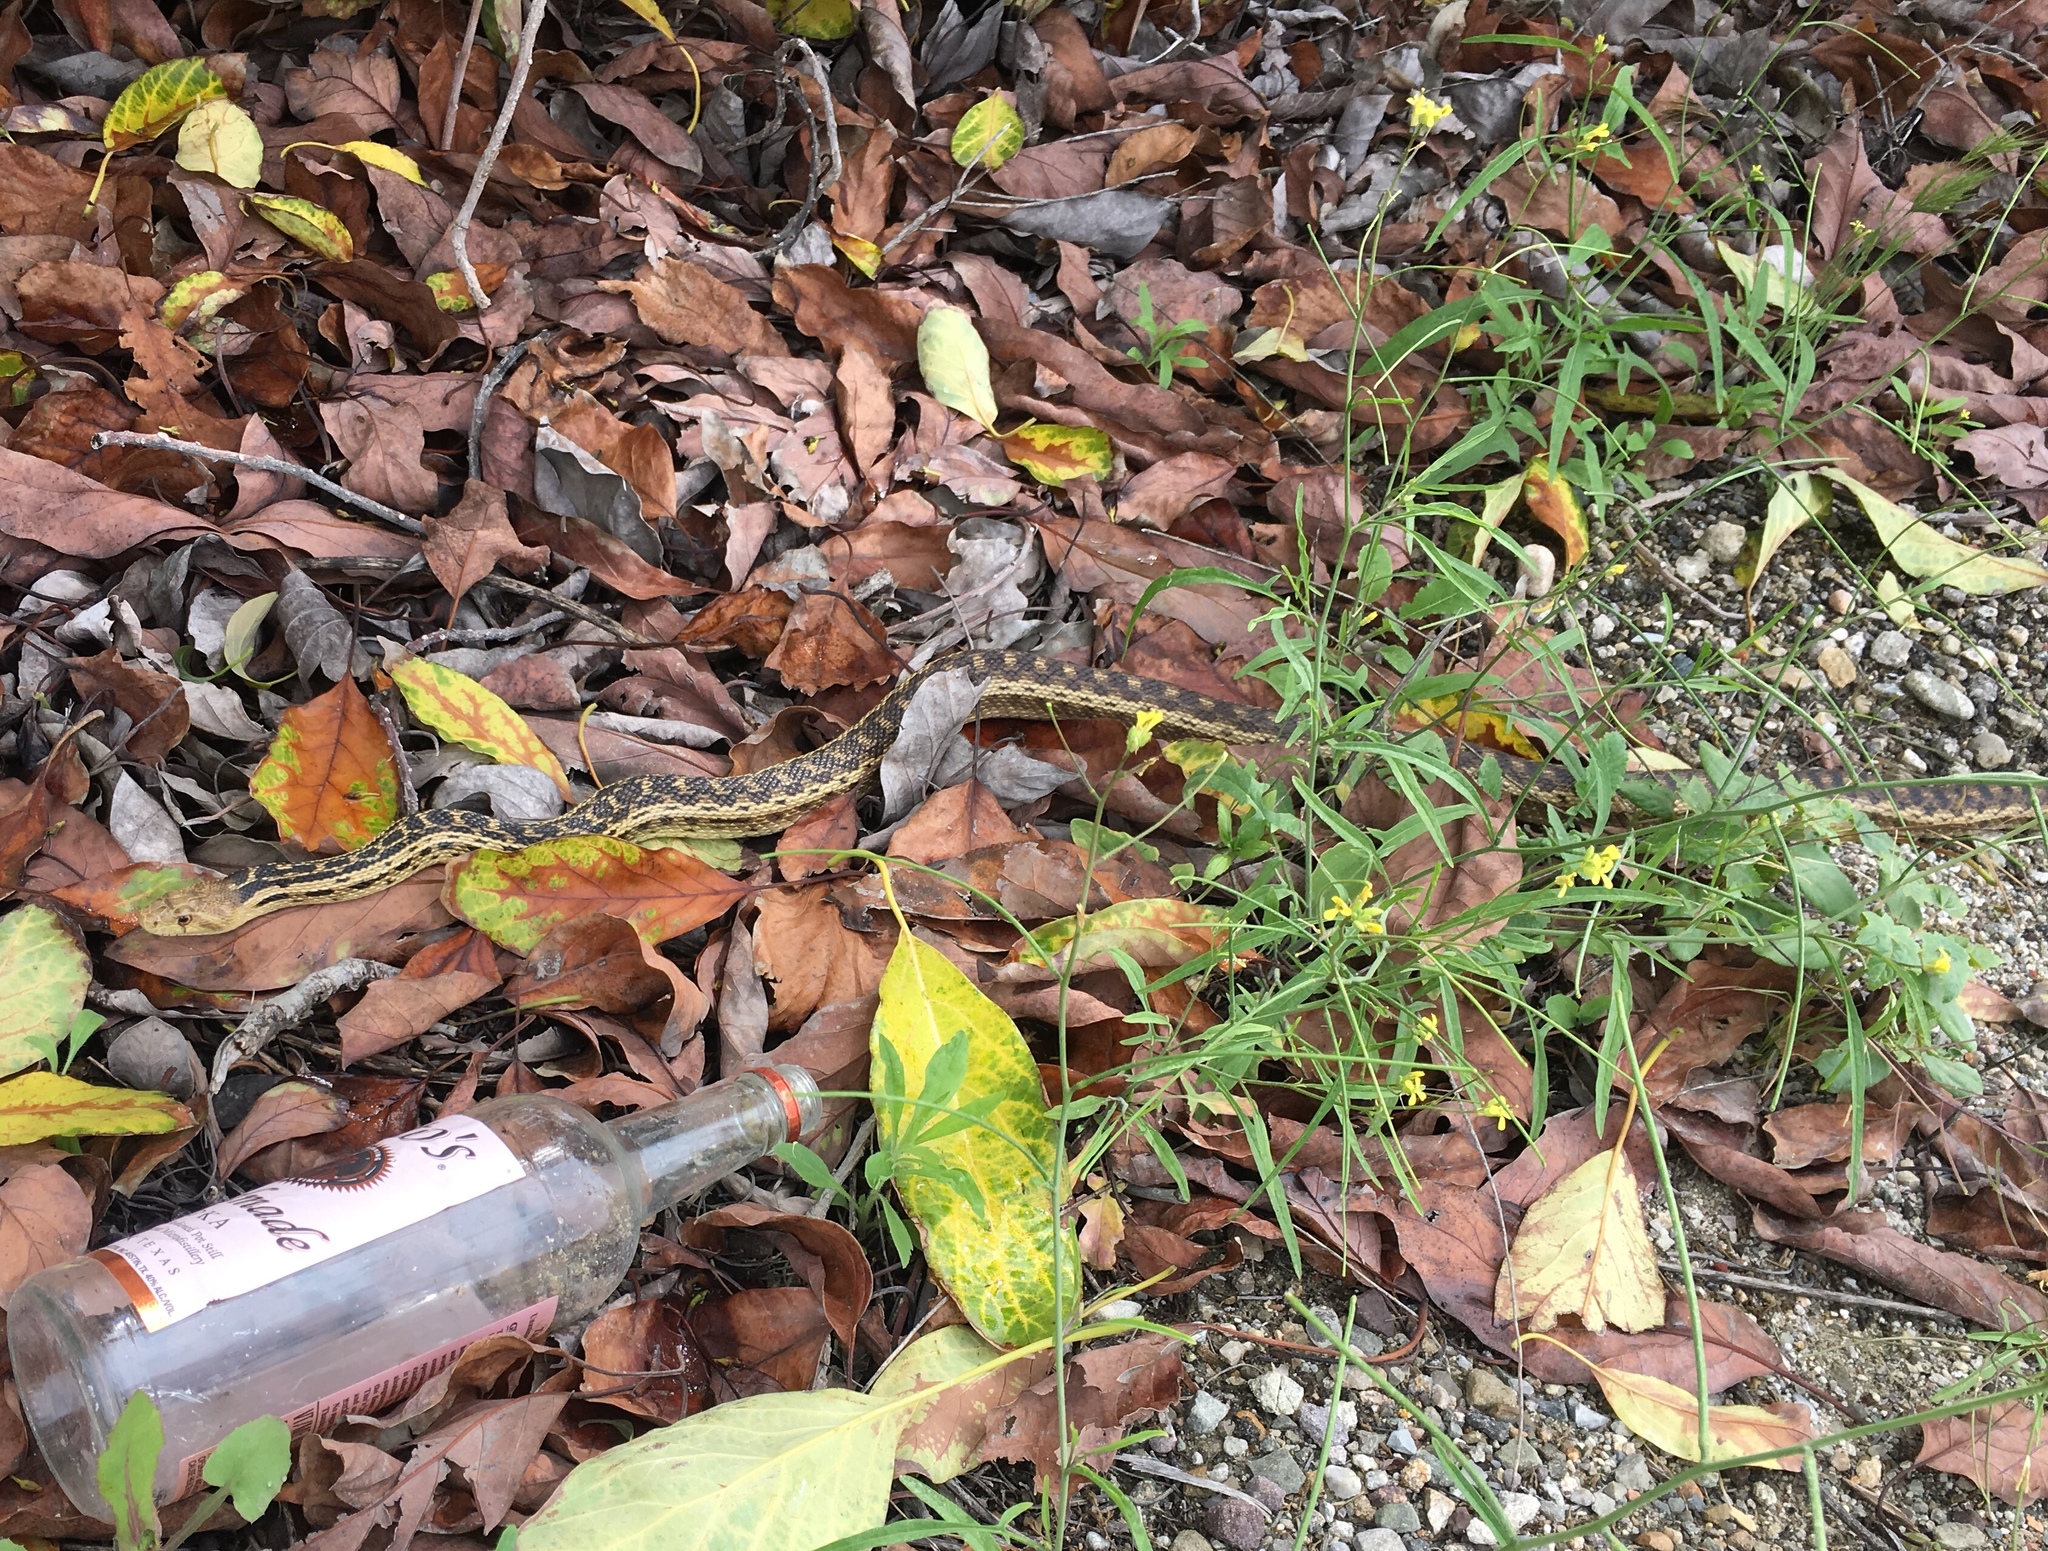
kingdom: Animalia
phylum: Chordata
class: Squamata
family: Colubridae
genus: Pituophis
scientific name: Pituophis catenifer
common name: Gopher snake
